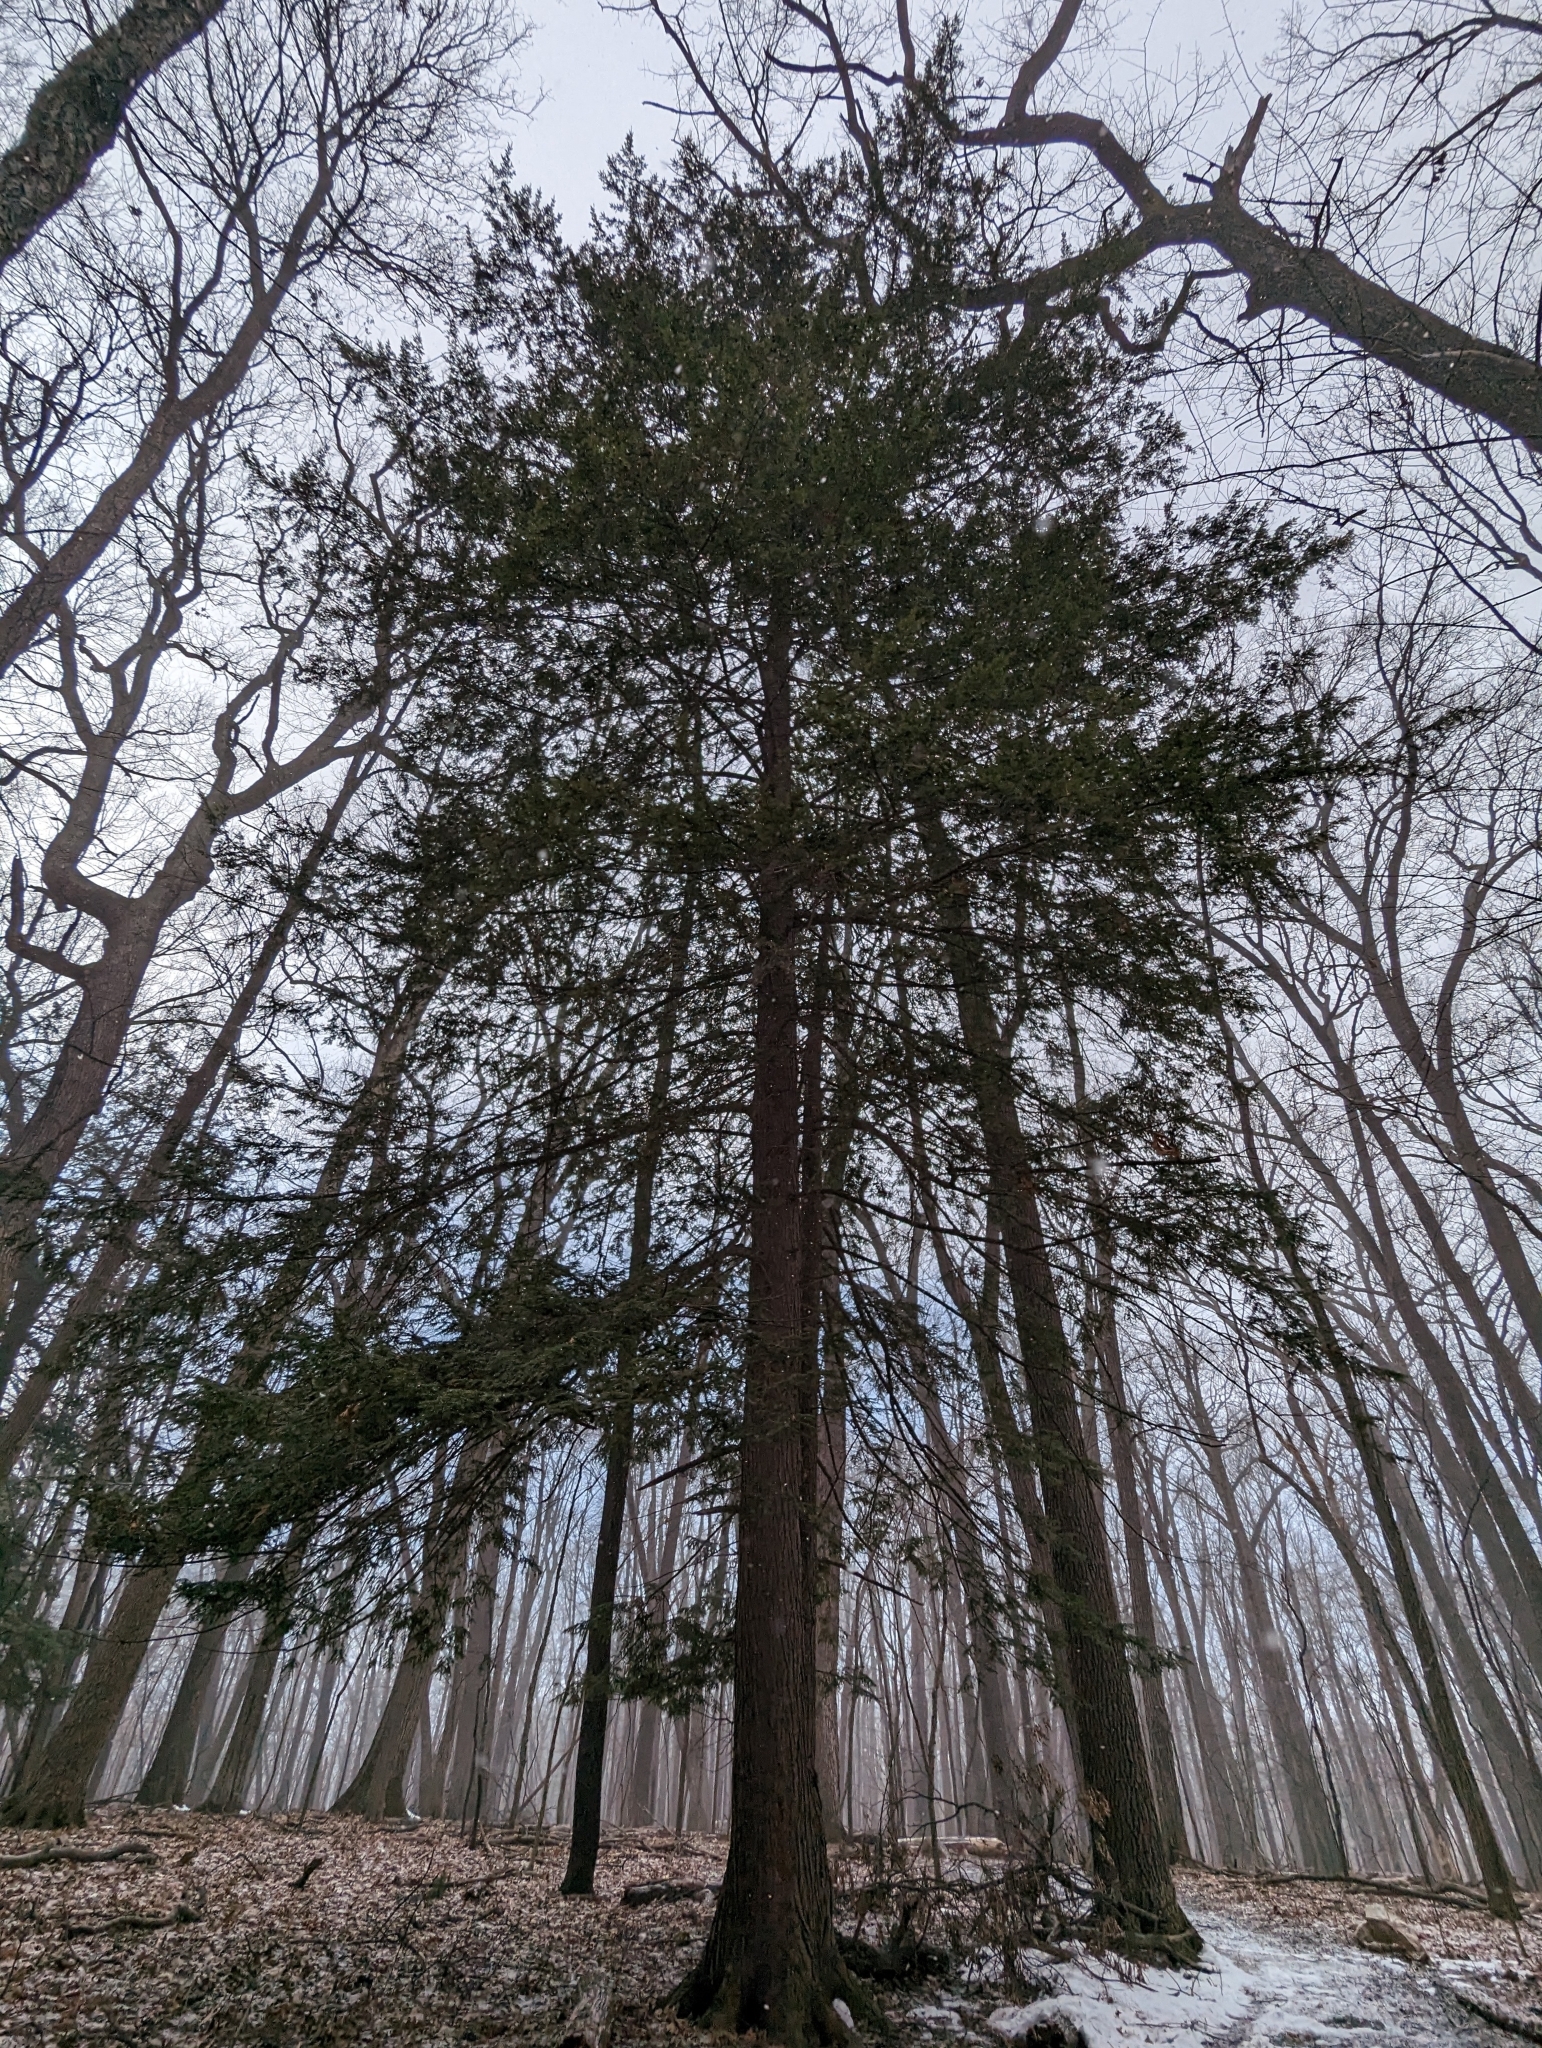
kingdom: Plantae
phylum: Tracheophyta
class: Pinopsida
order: Pinales
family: Pinaceae
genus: Tsuga
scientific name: Tsuga canadensis
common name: Eastern hemlock
